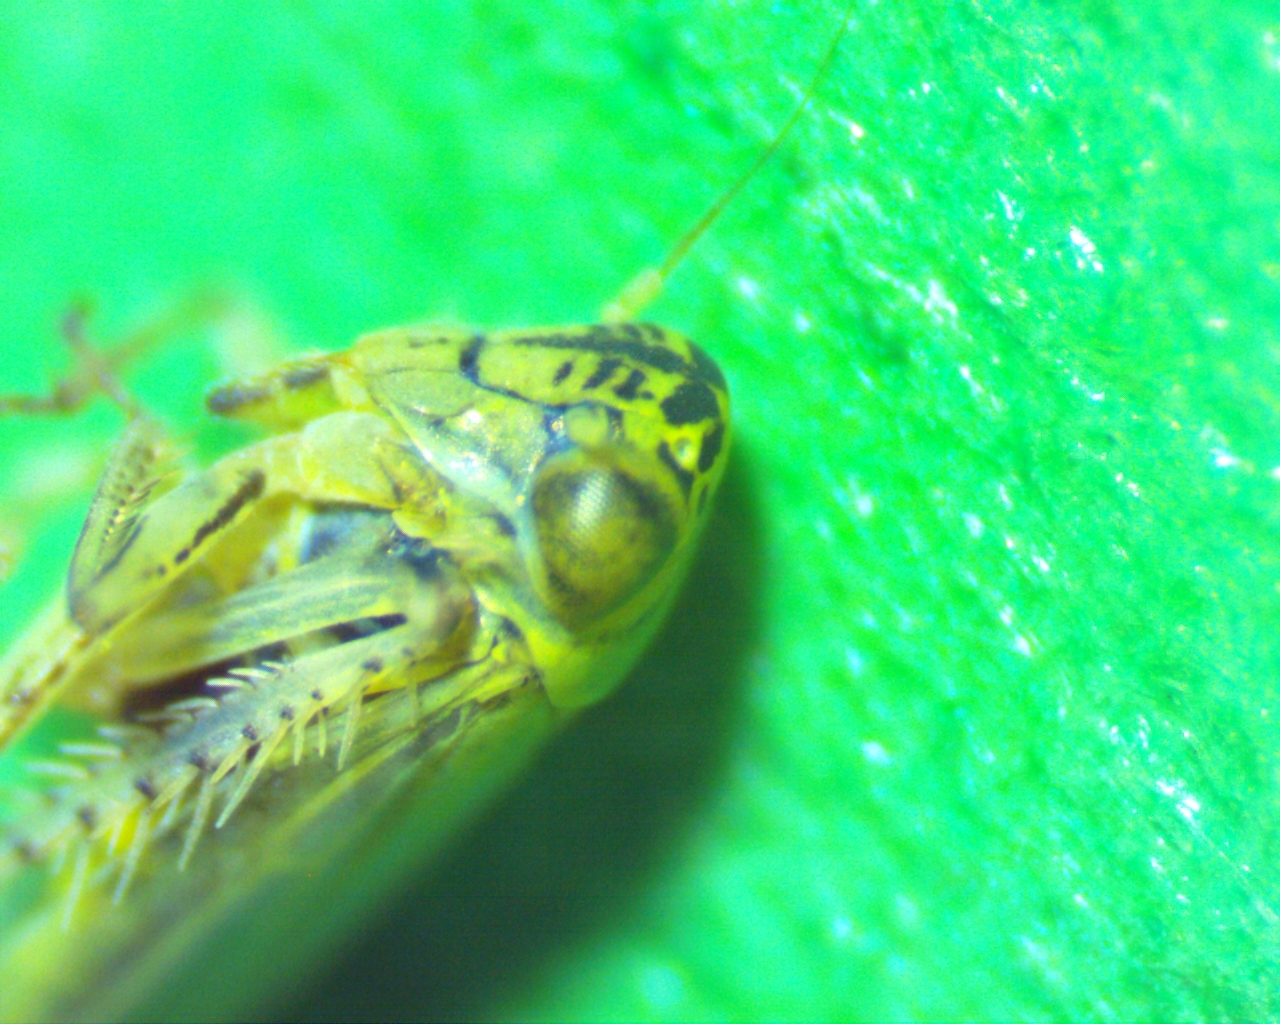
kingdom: Animalia
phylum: Arthropoda
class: Insecta
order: Hemiptera
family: Cicadellidae
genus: Macrosteles
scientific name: Macrosteles quadrilineatus
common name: Aster leafhopper
